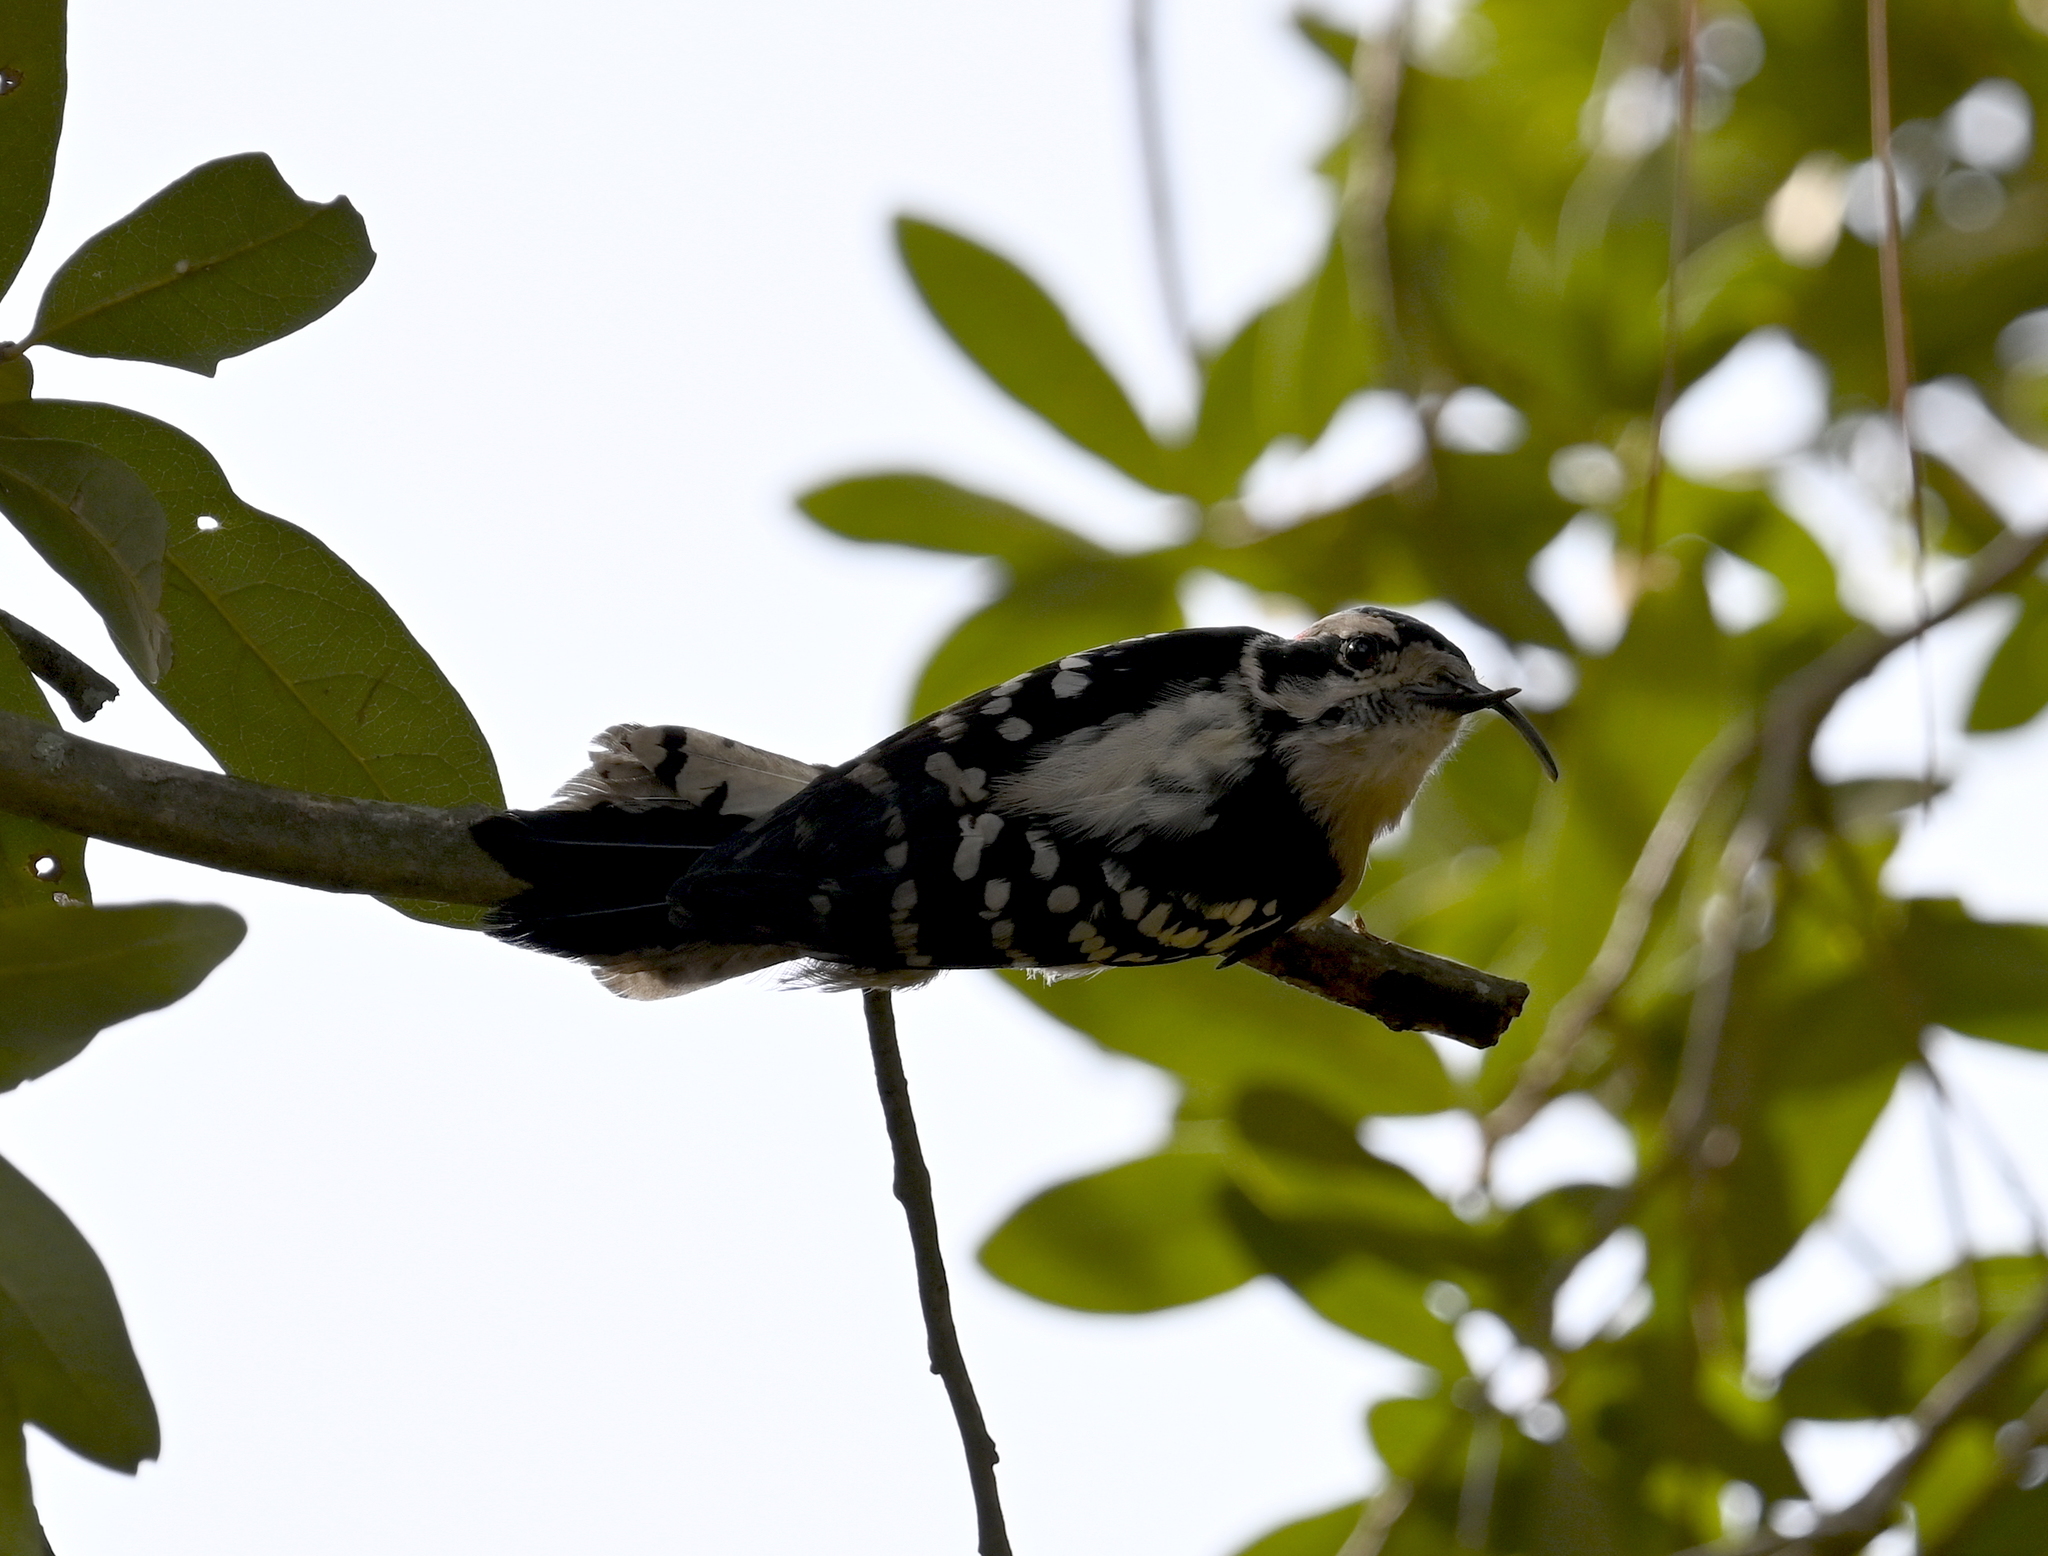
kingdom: Animalia
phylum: Chordata
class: Aves
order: Piciformes
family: Picidae
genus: Dryobates
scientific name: Dryobates pubescens
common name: Downy woodpecker
